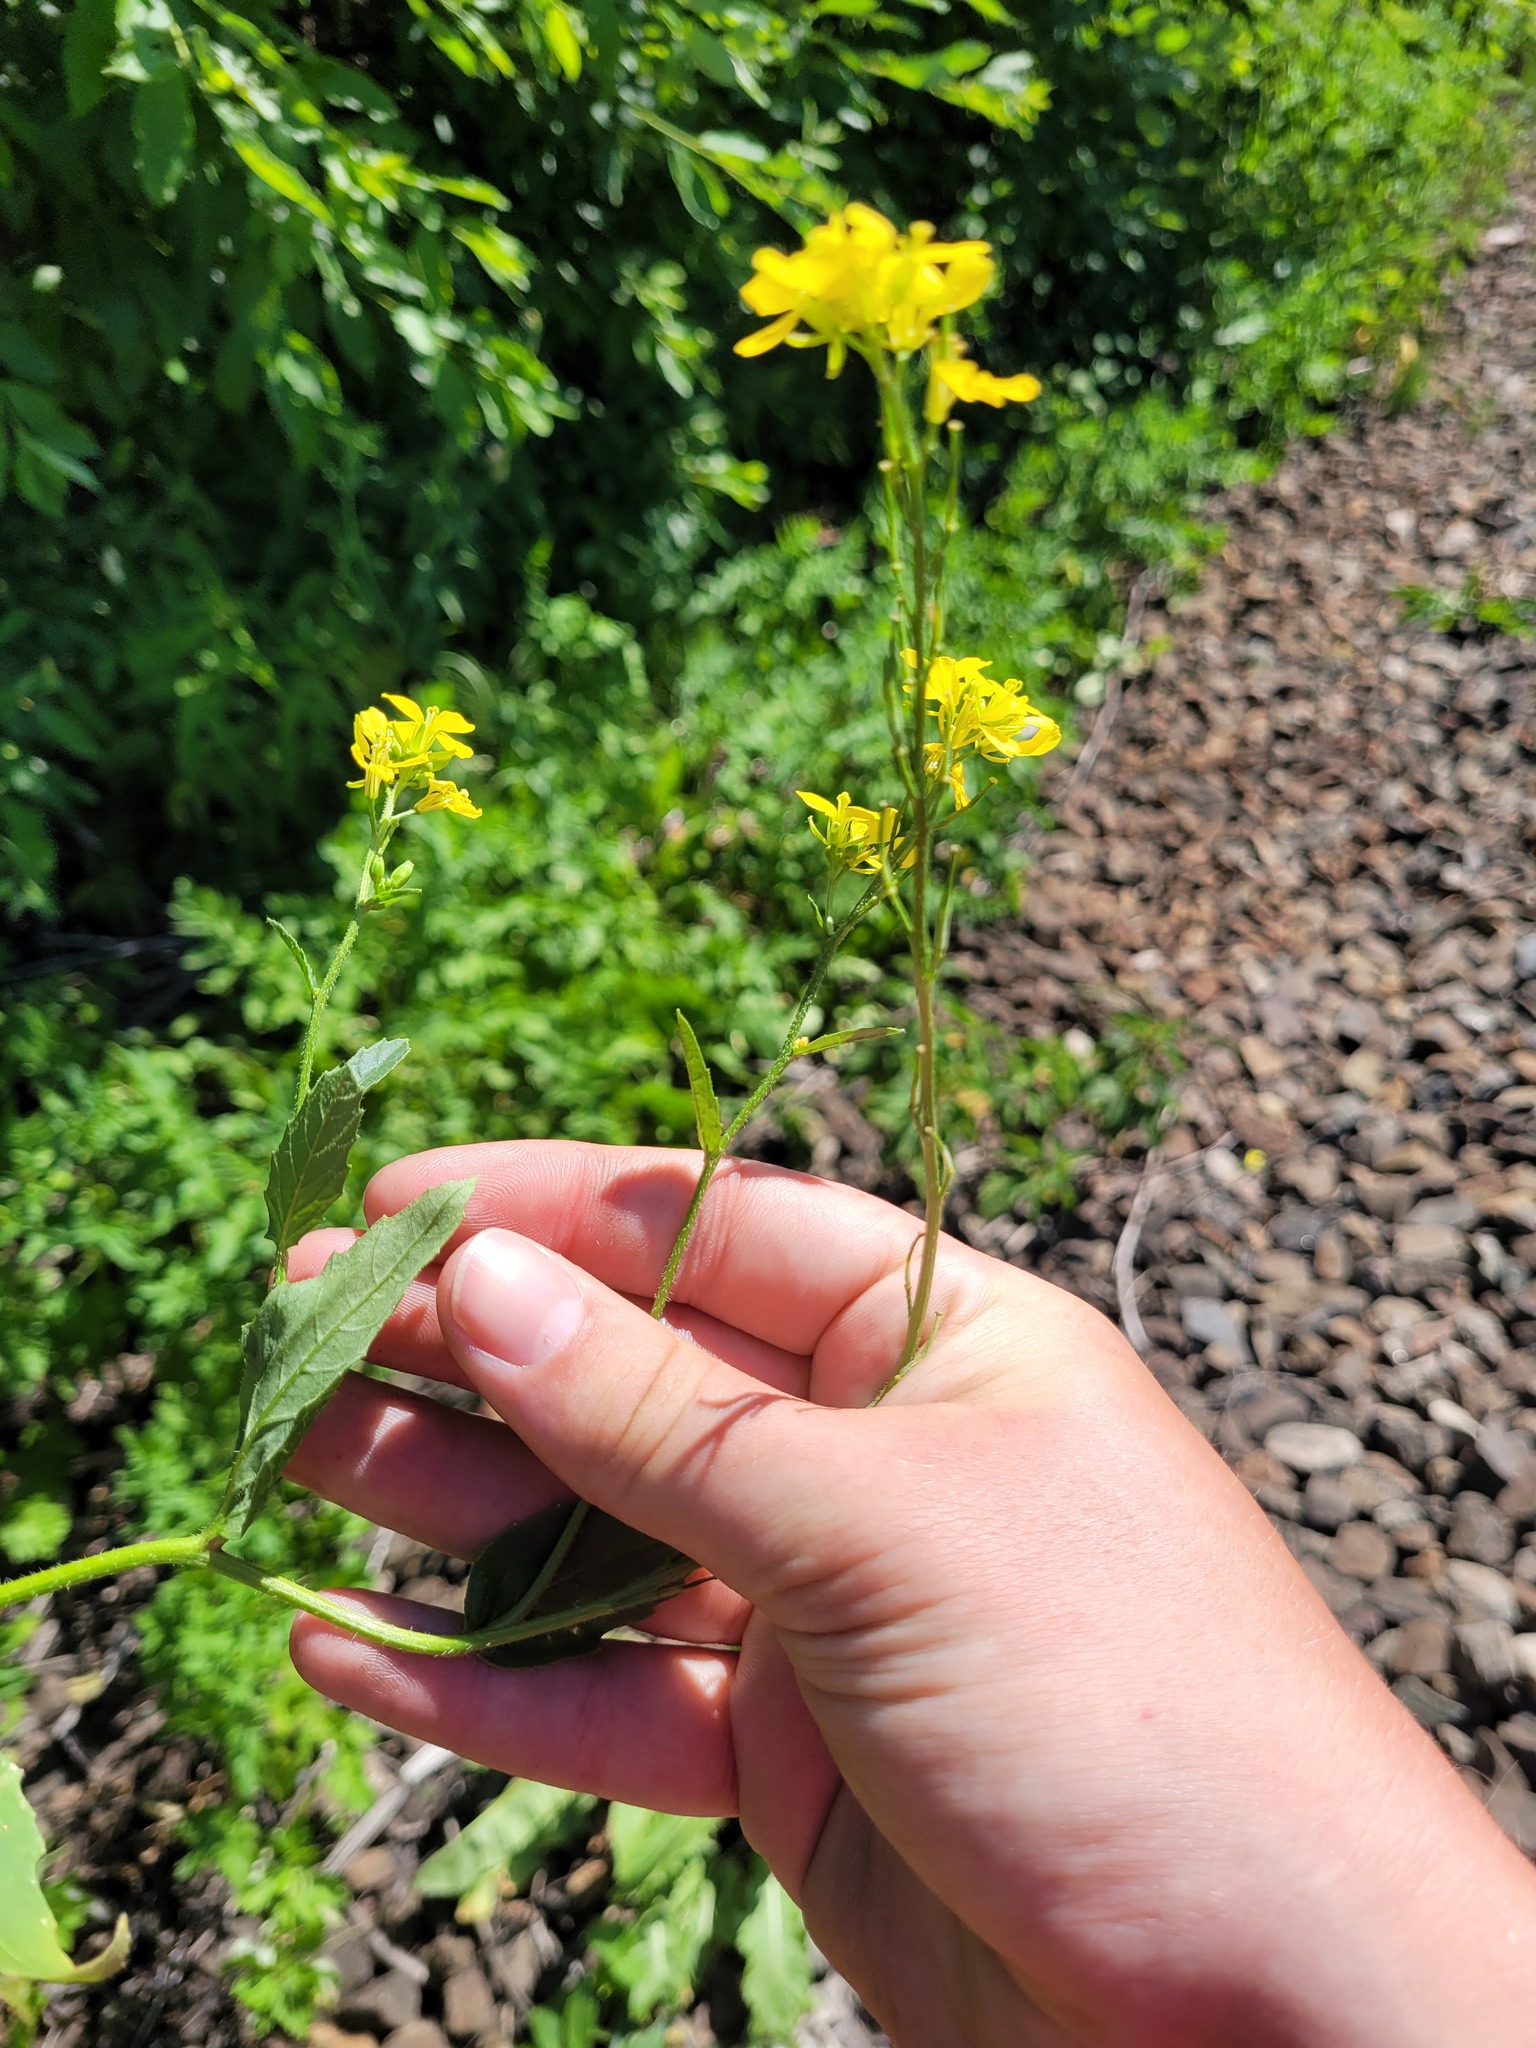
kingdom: Plantae
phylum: Tracheophyta
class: Magnoliopsida
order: Brassicales
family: Brassicaceae
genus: Sinapis
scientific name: Sinapis arvensis
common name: Charlock
